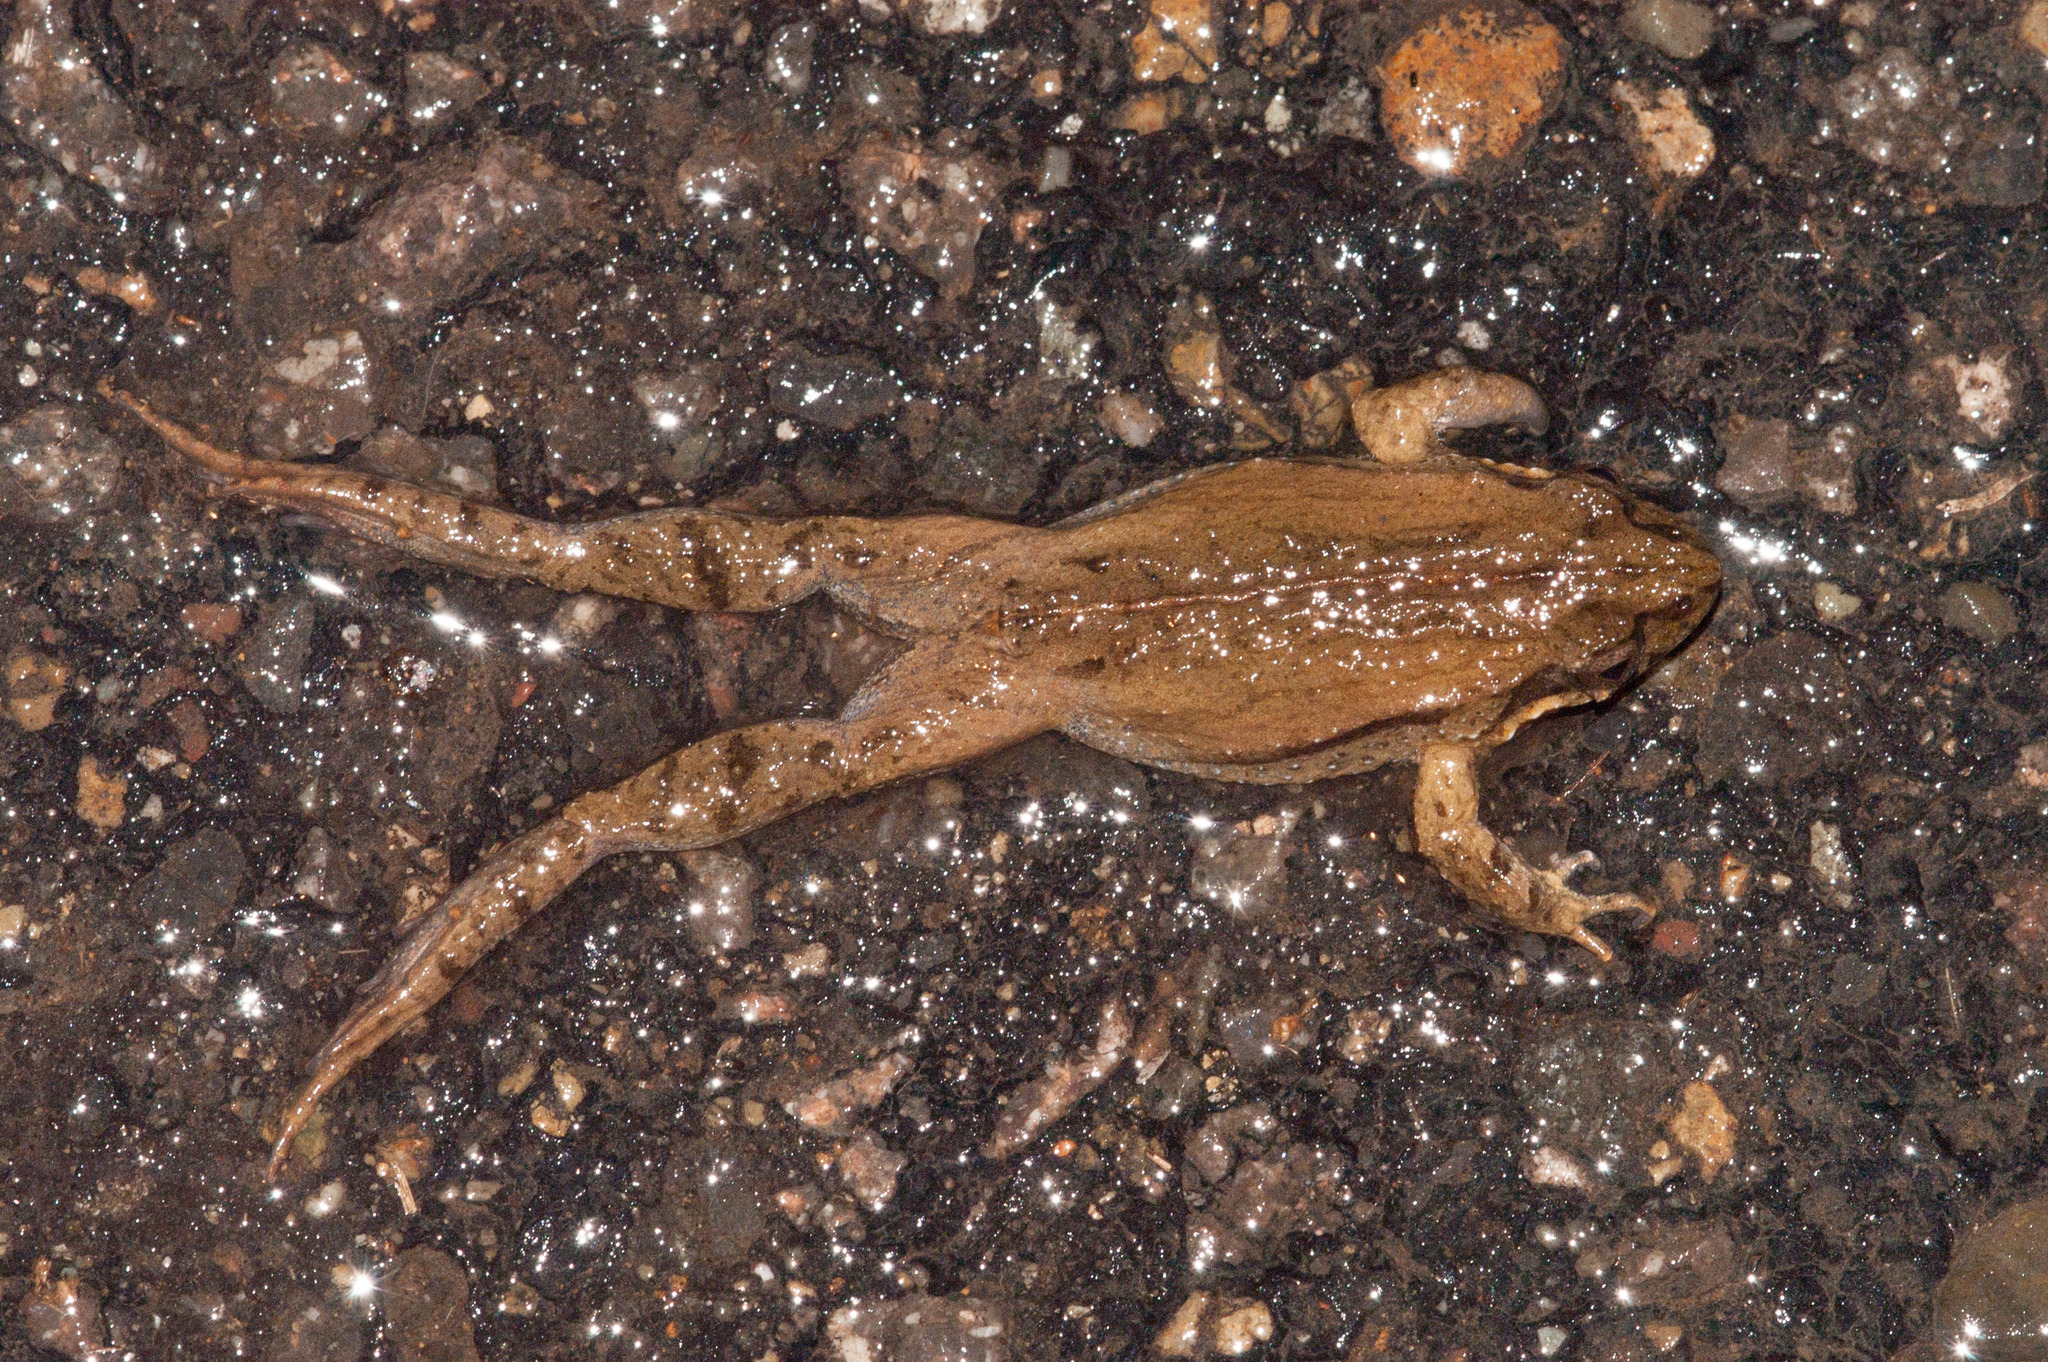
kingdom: Animalia
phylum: Chordata
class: Amphibia
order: Anura
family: Myobatrachidae
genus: Crinia
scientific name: Crinia signifera
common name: Brown froglet
